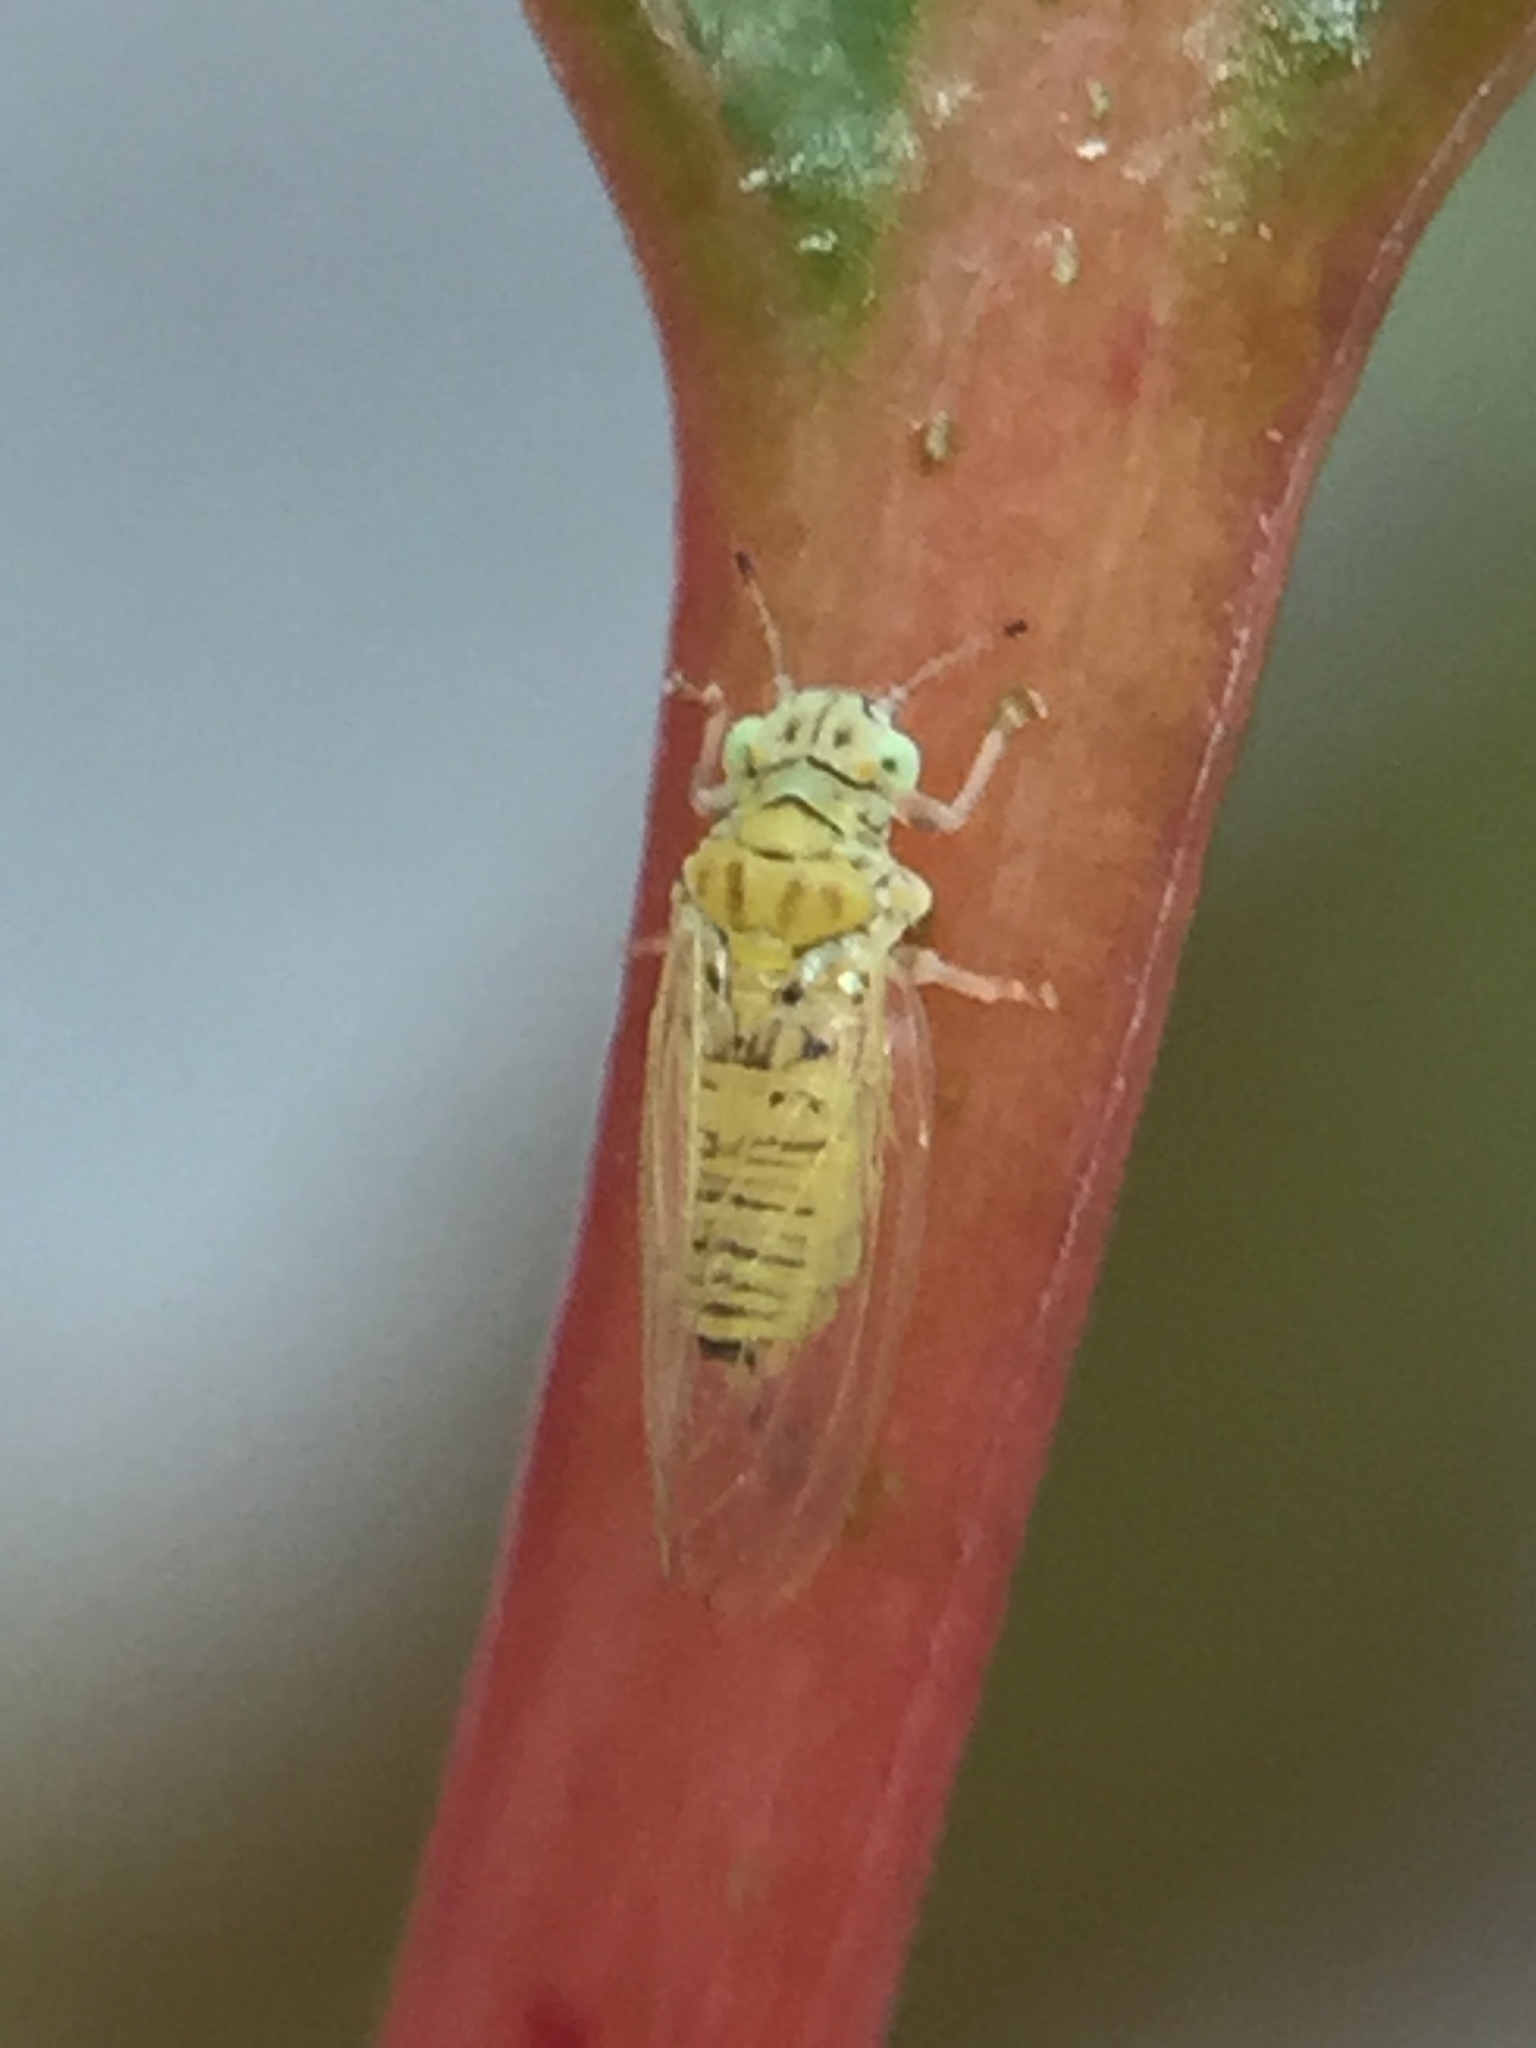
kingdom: Animalia
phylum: Arthropoda
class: Insecta
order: Hemiptera
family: Aphalaridae
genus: Cryptoneossa
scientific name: Cryptoneossa triangula
